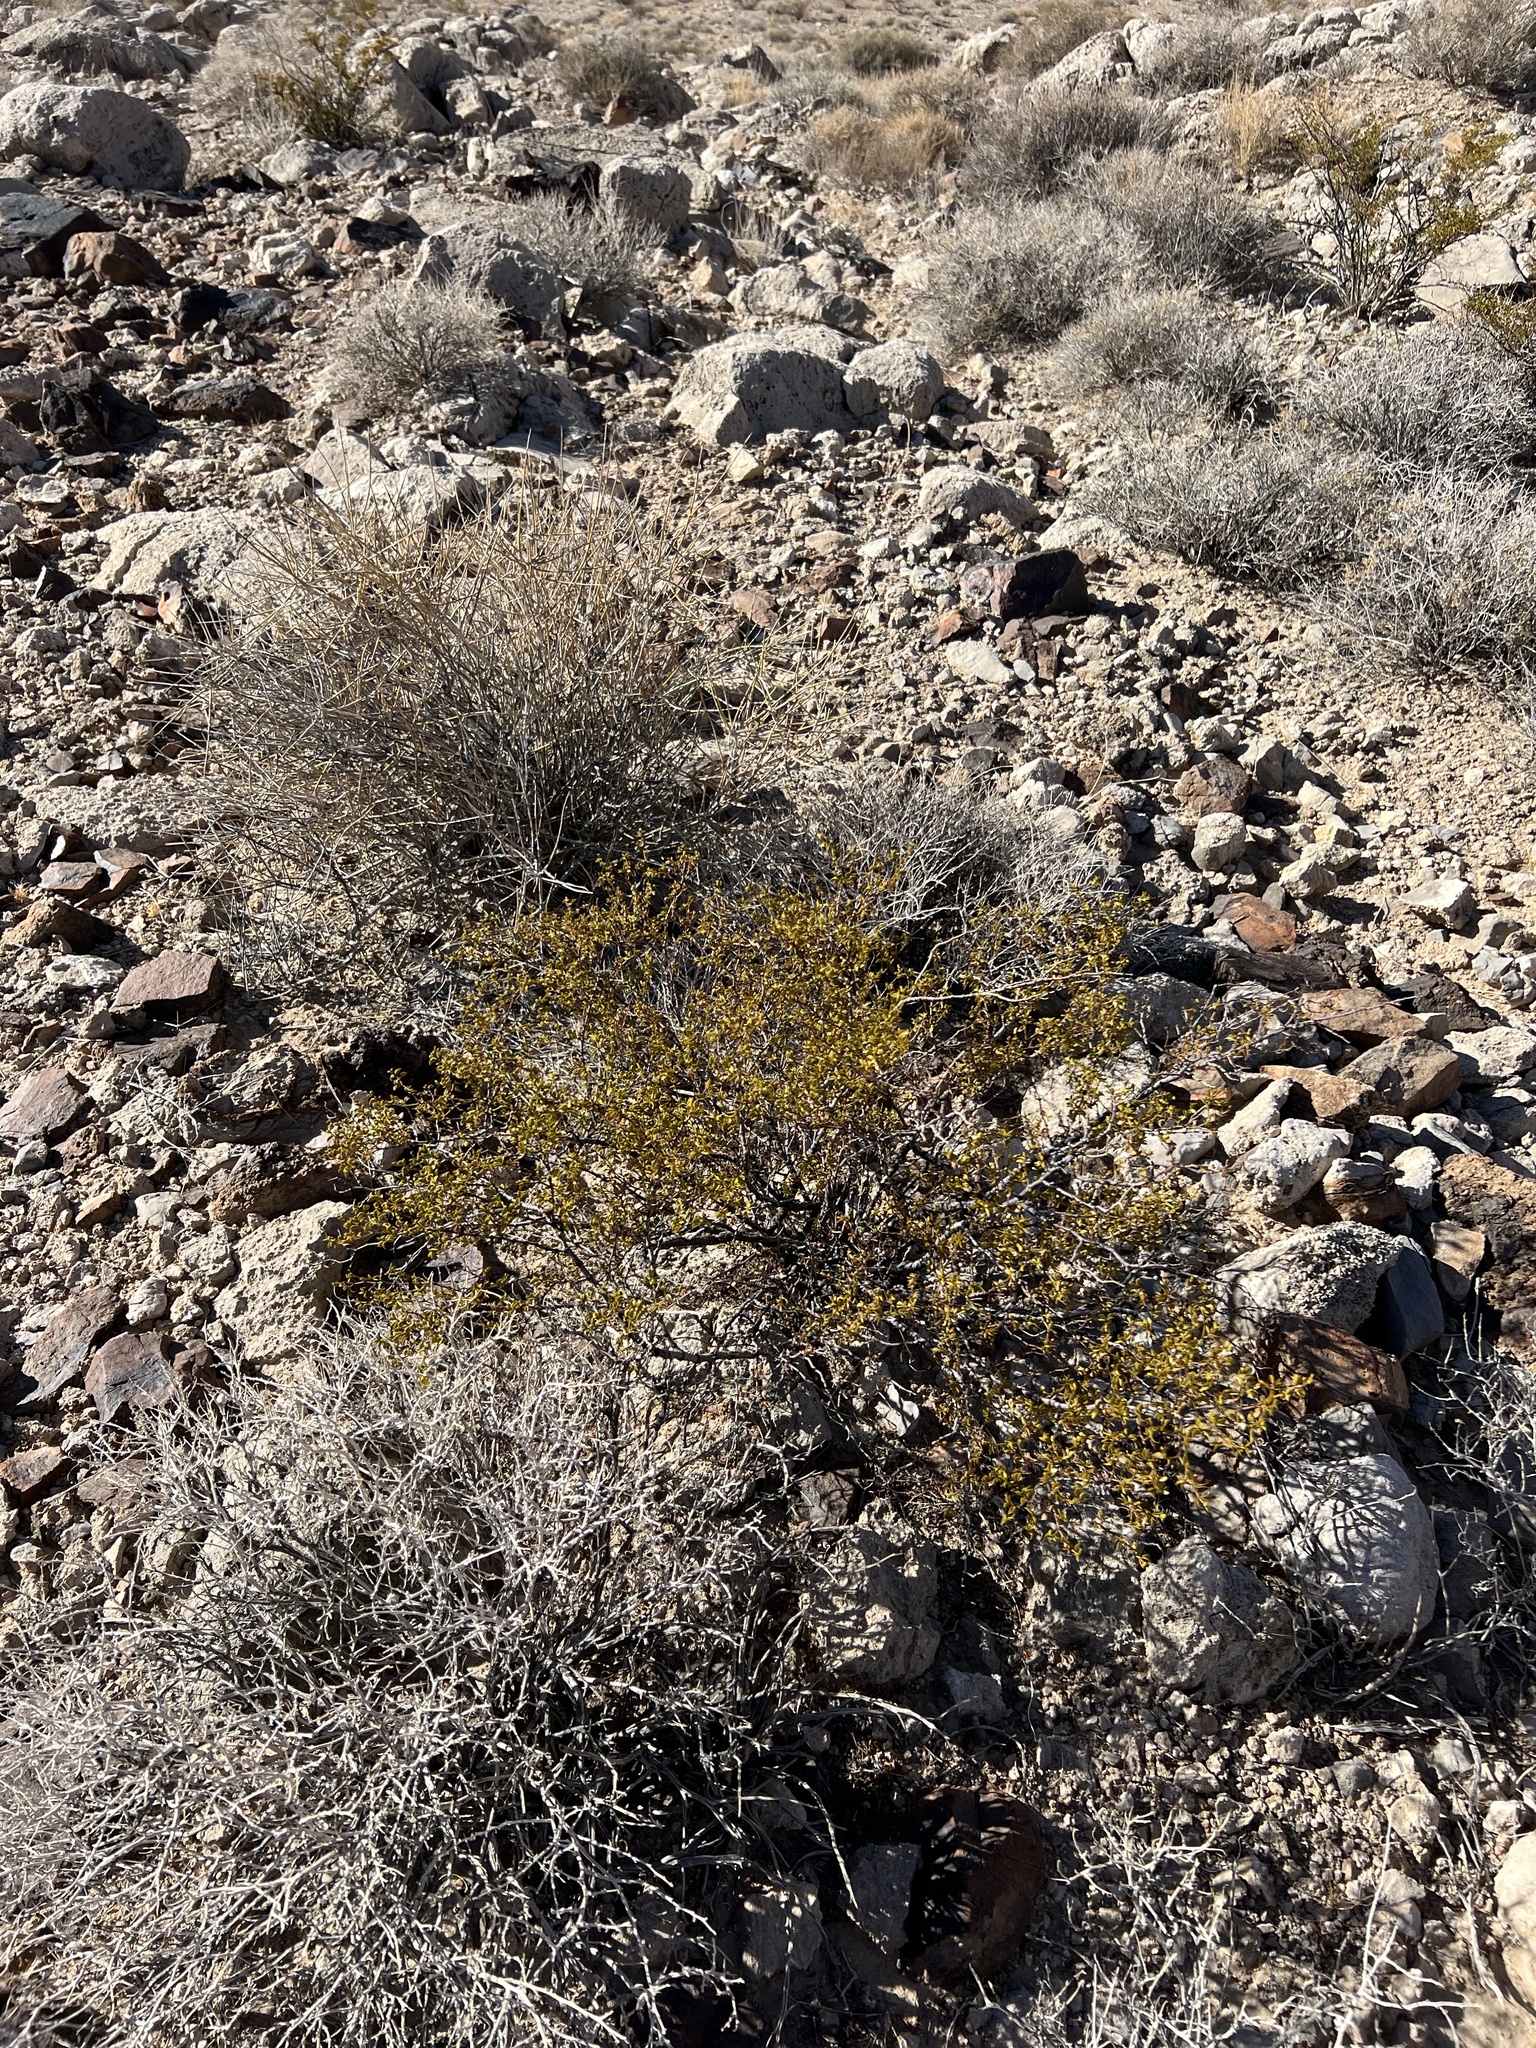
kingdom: Plantae
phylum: Tracheophyta
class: Magnoliopsida
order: Zygophyllales
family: Zygophyllaceae
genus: Larrea
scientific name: Larrea tridentata
